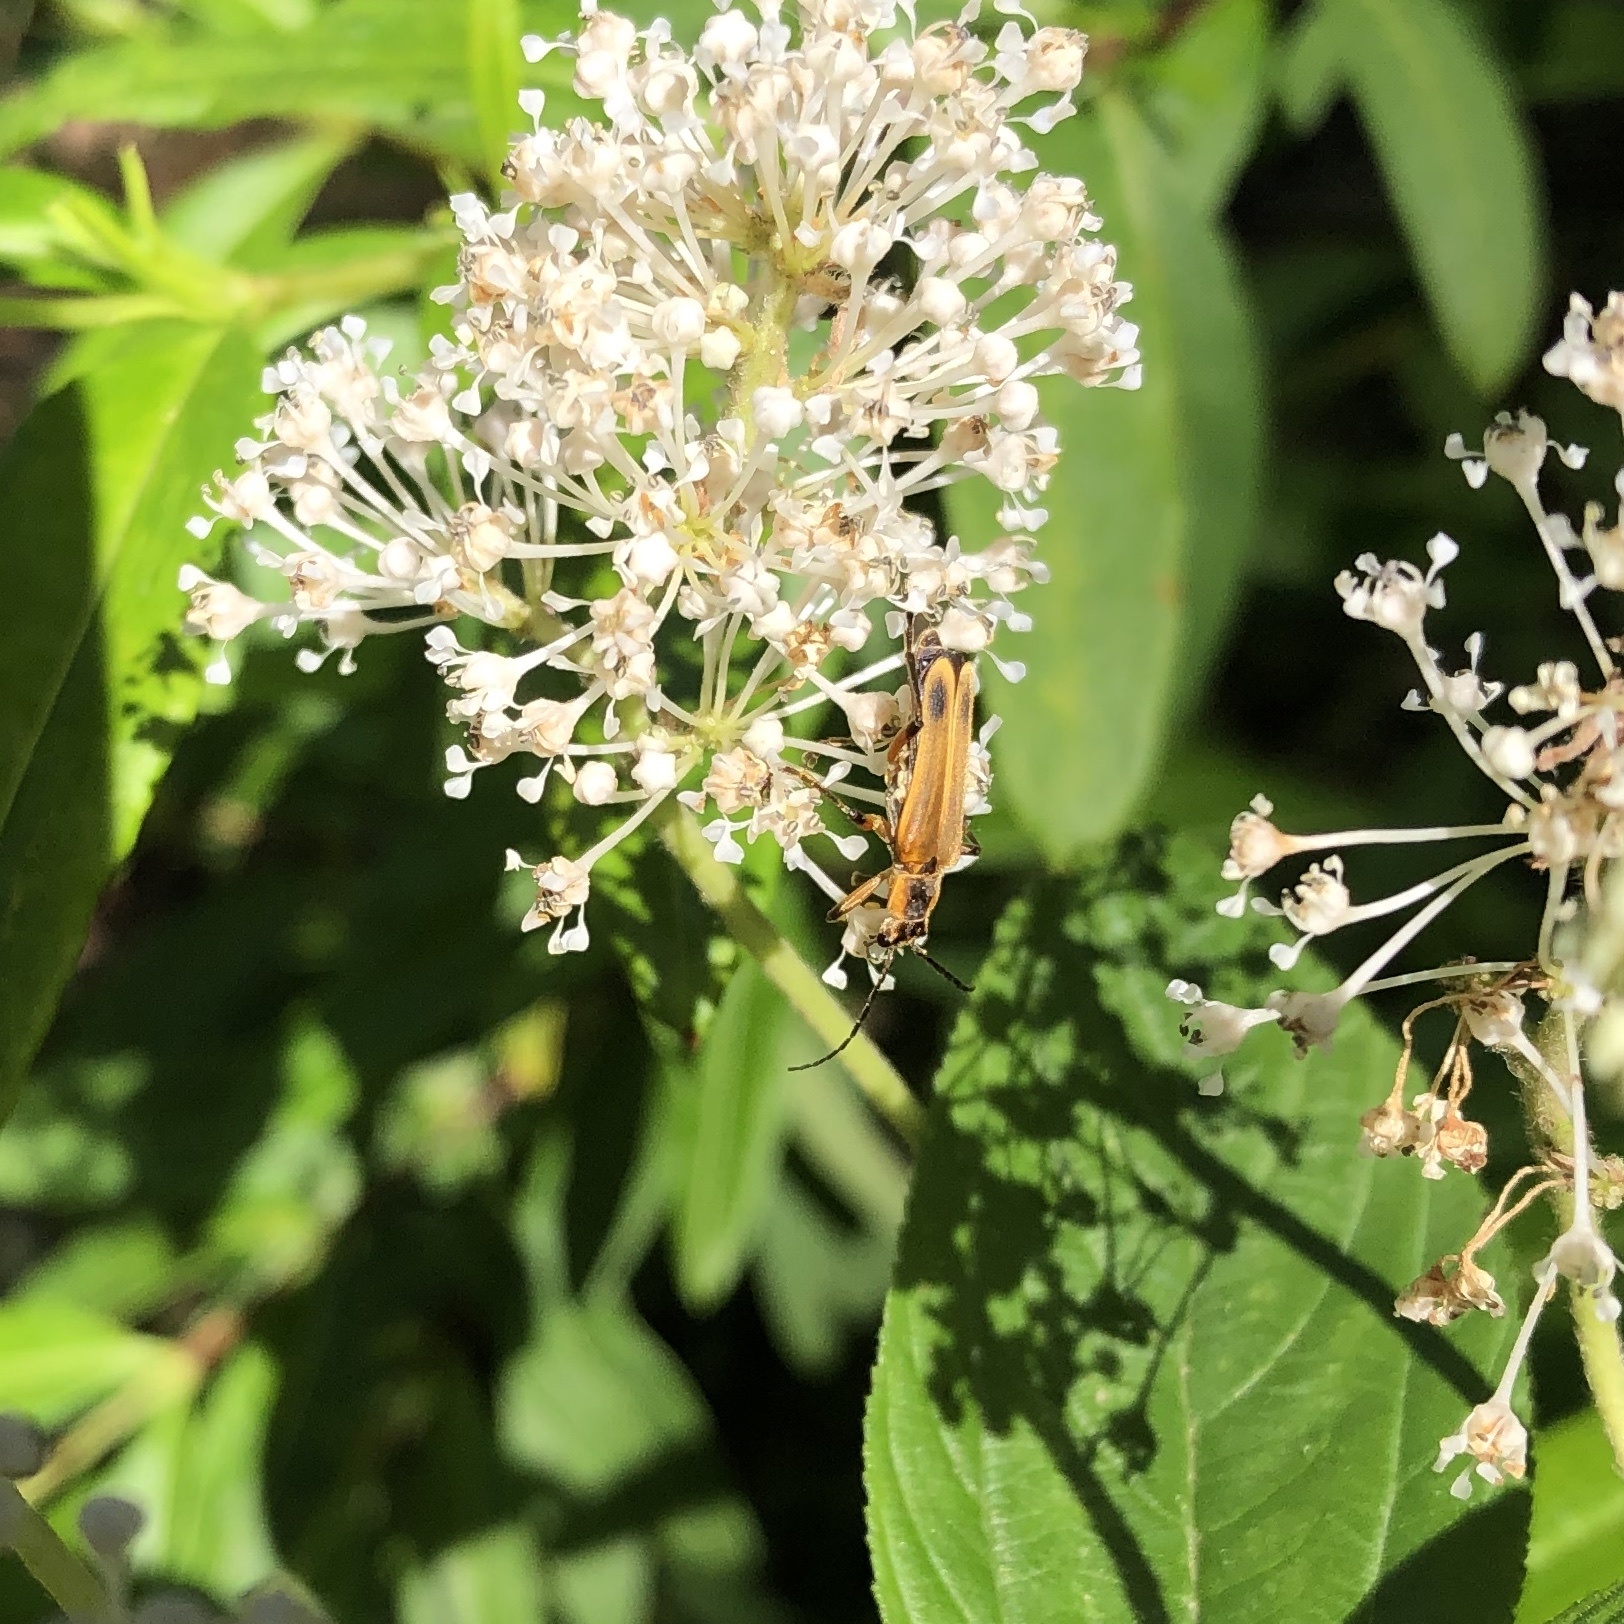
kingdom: Animalia
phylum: Arthropoda
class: Insecta
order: Coleoptera
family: Cantharidae
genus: Chauliognathus
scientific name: Chauliognathus marginatus
